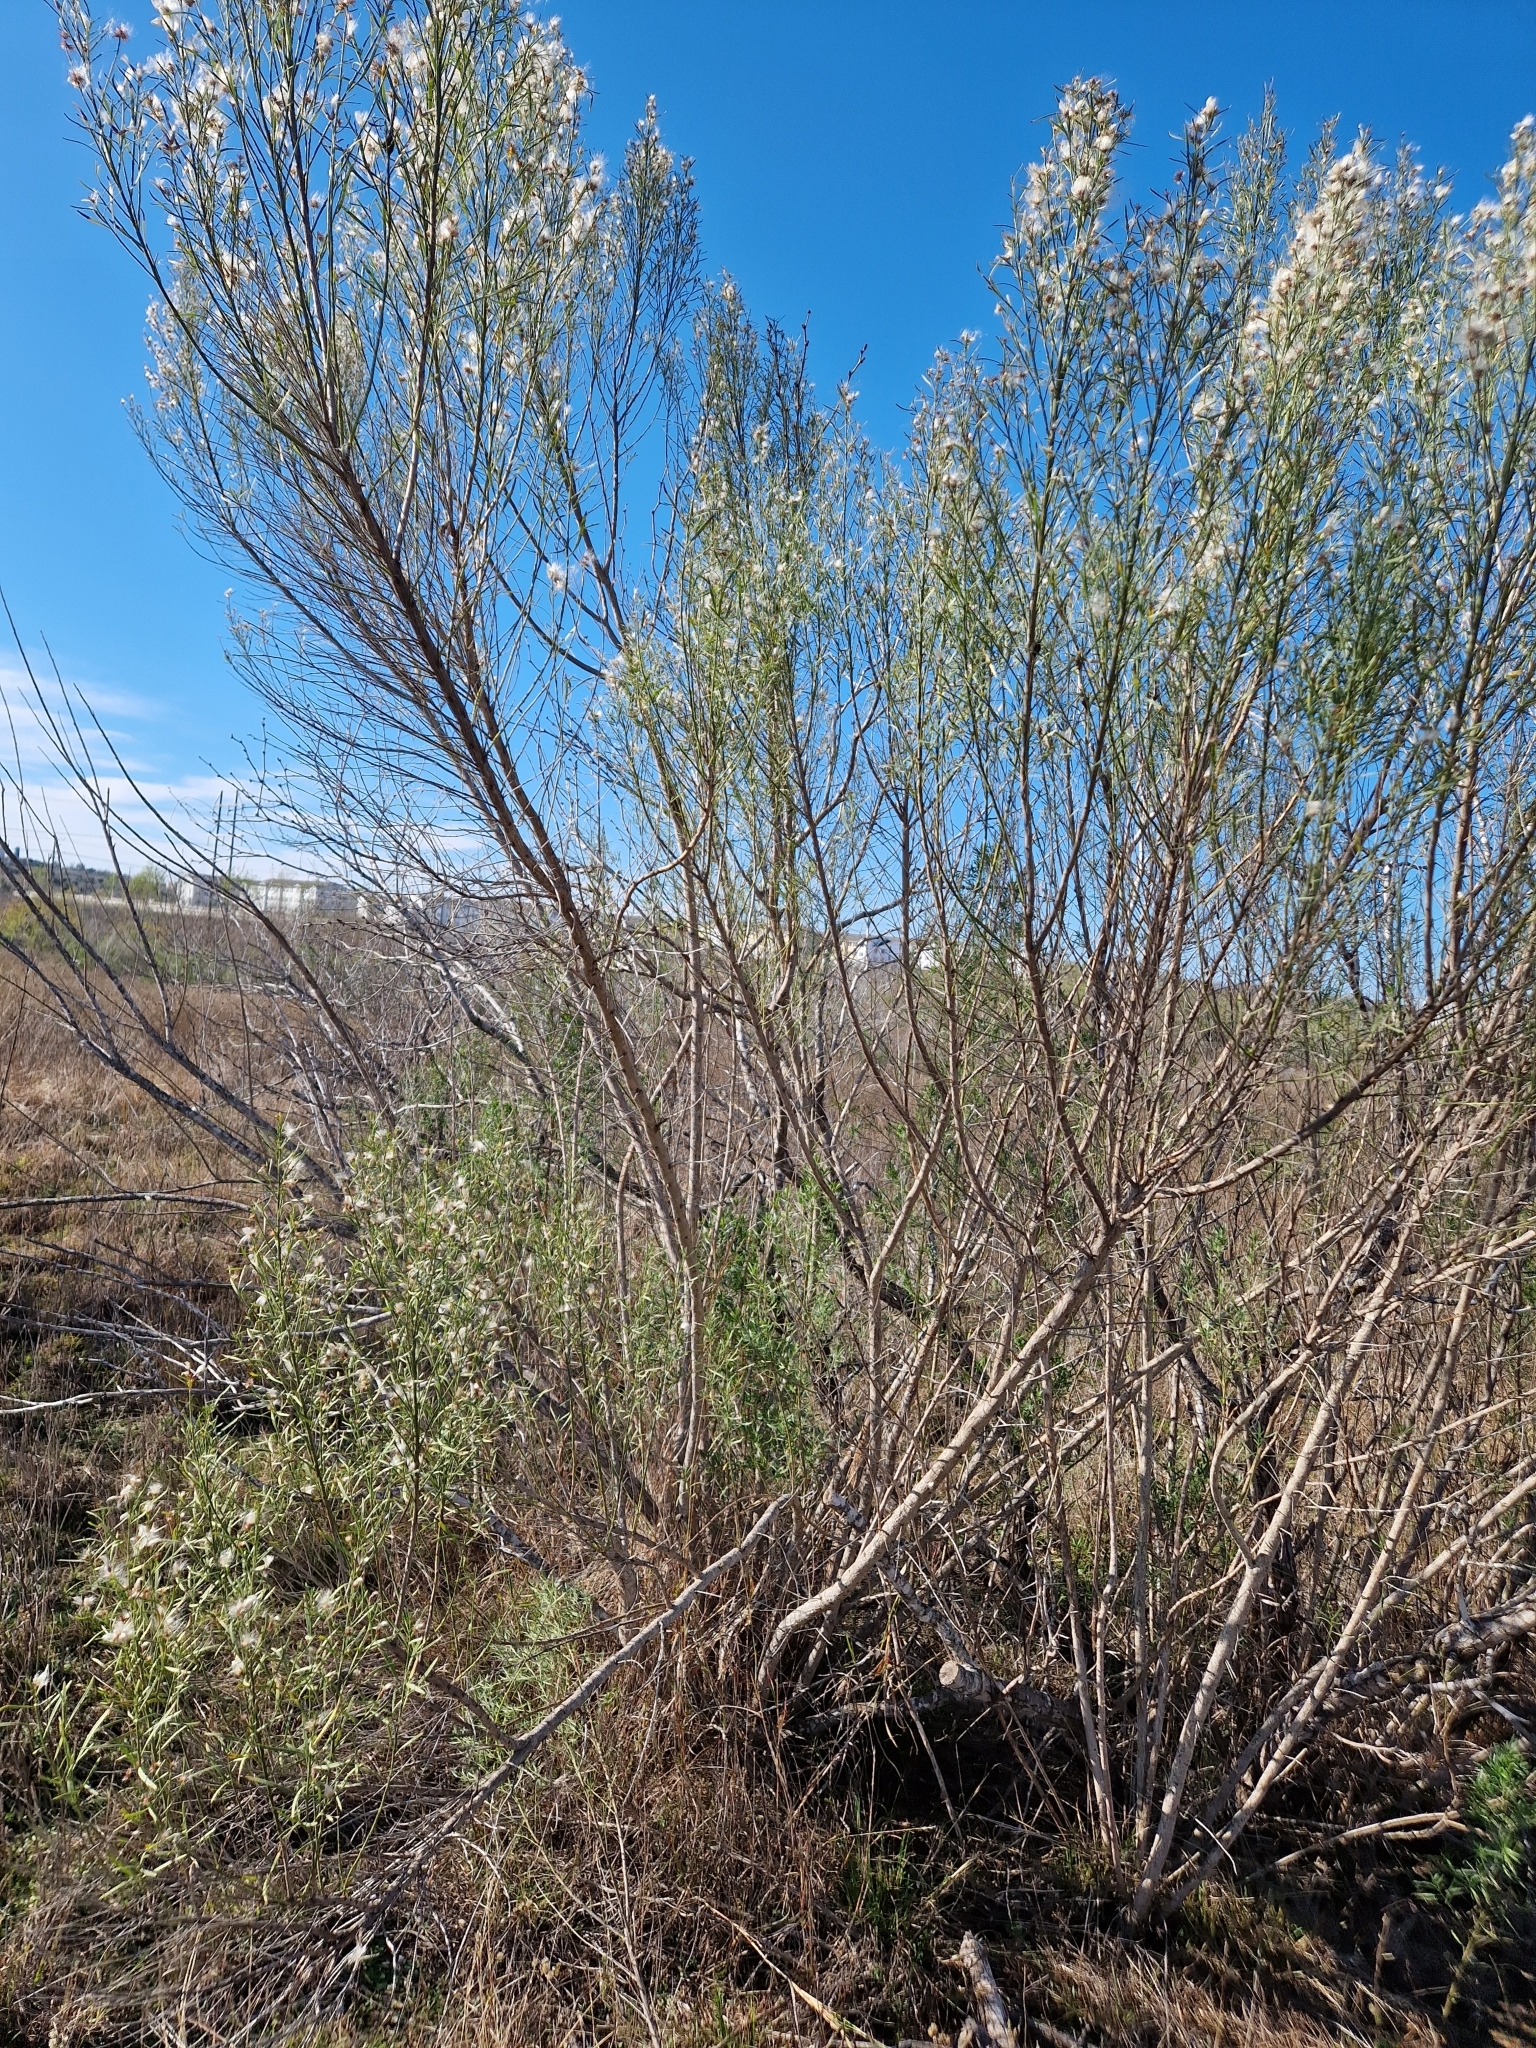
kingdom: Plantae
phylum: Tracheophyta
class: Magnoliopsida
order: Asterales
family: Asteraceae
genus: Baccharis
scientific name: Baccharis neglecta
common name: Roosevelt-weed
